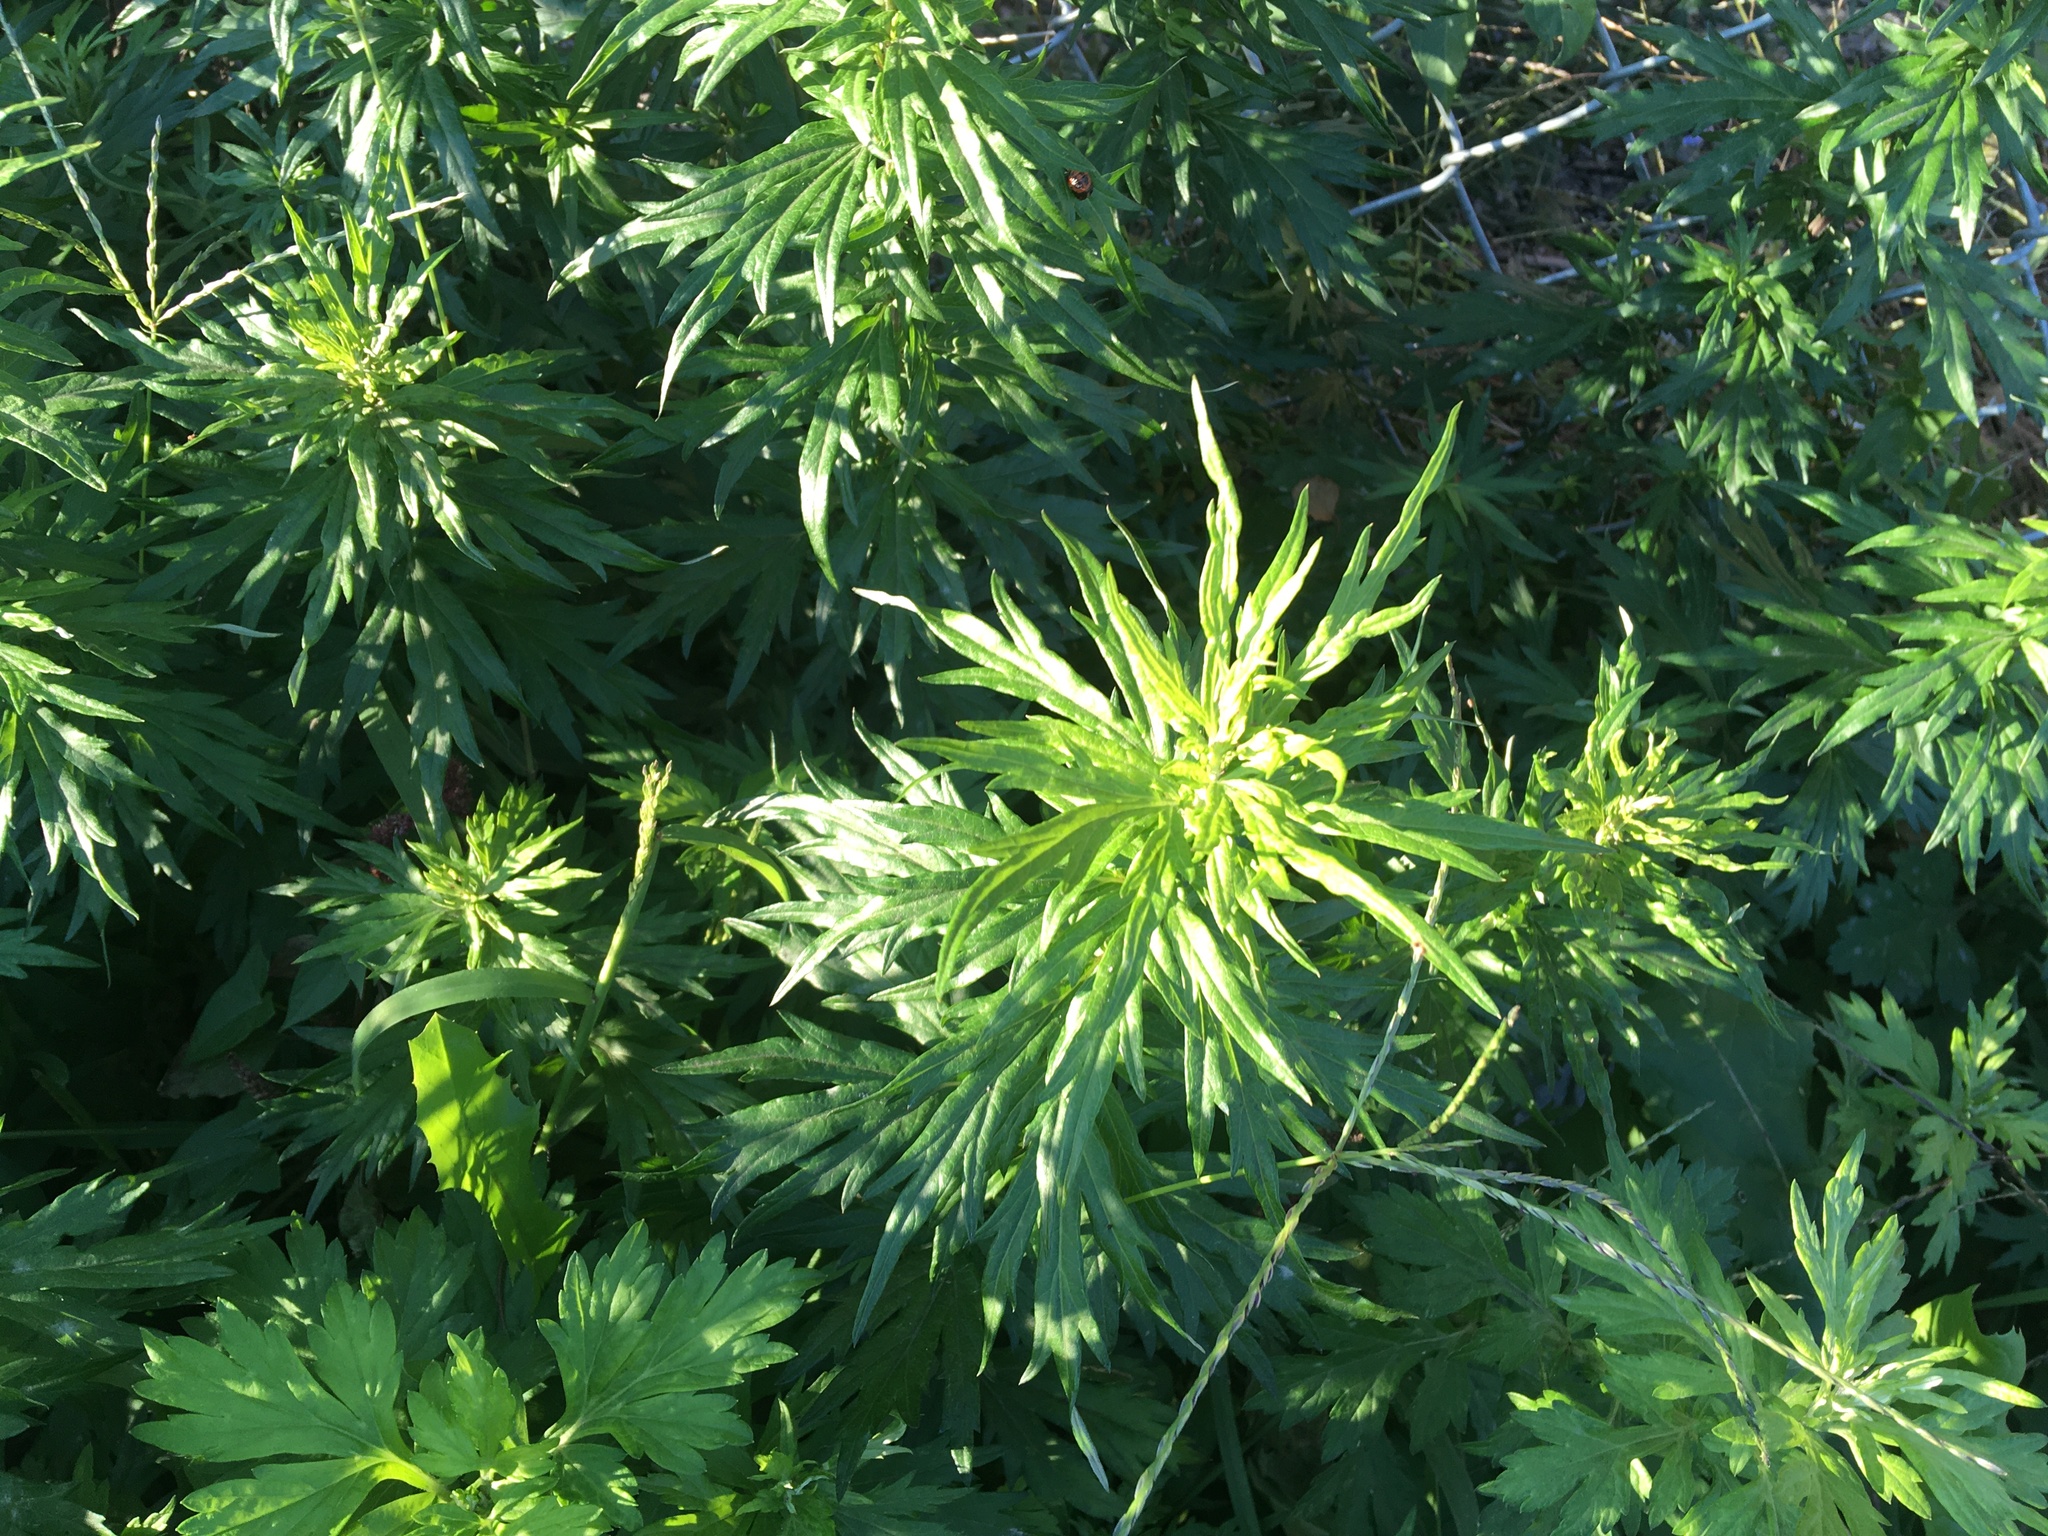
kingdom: Plantae
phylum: Tracheophyta
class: Magnoliopsida
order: Asterales
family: Asteraceae
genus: Artemisia
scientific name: Artemisia vulgaris
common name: Mugwort
